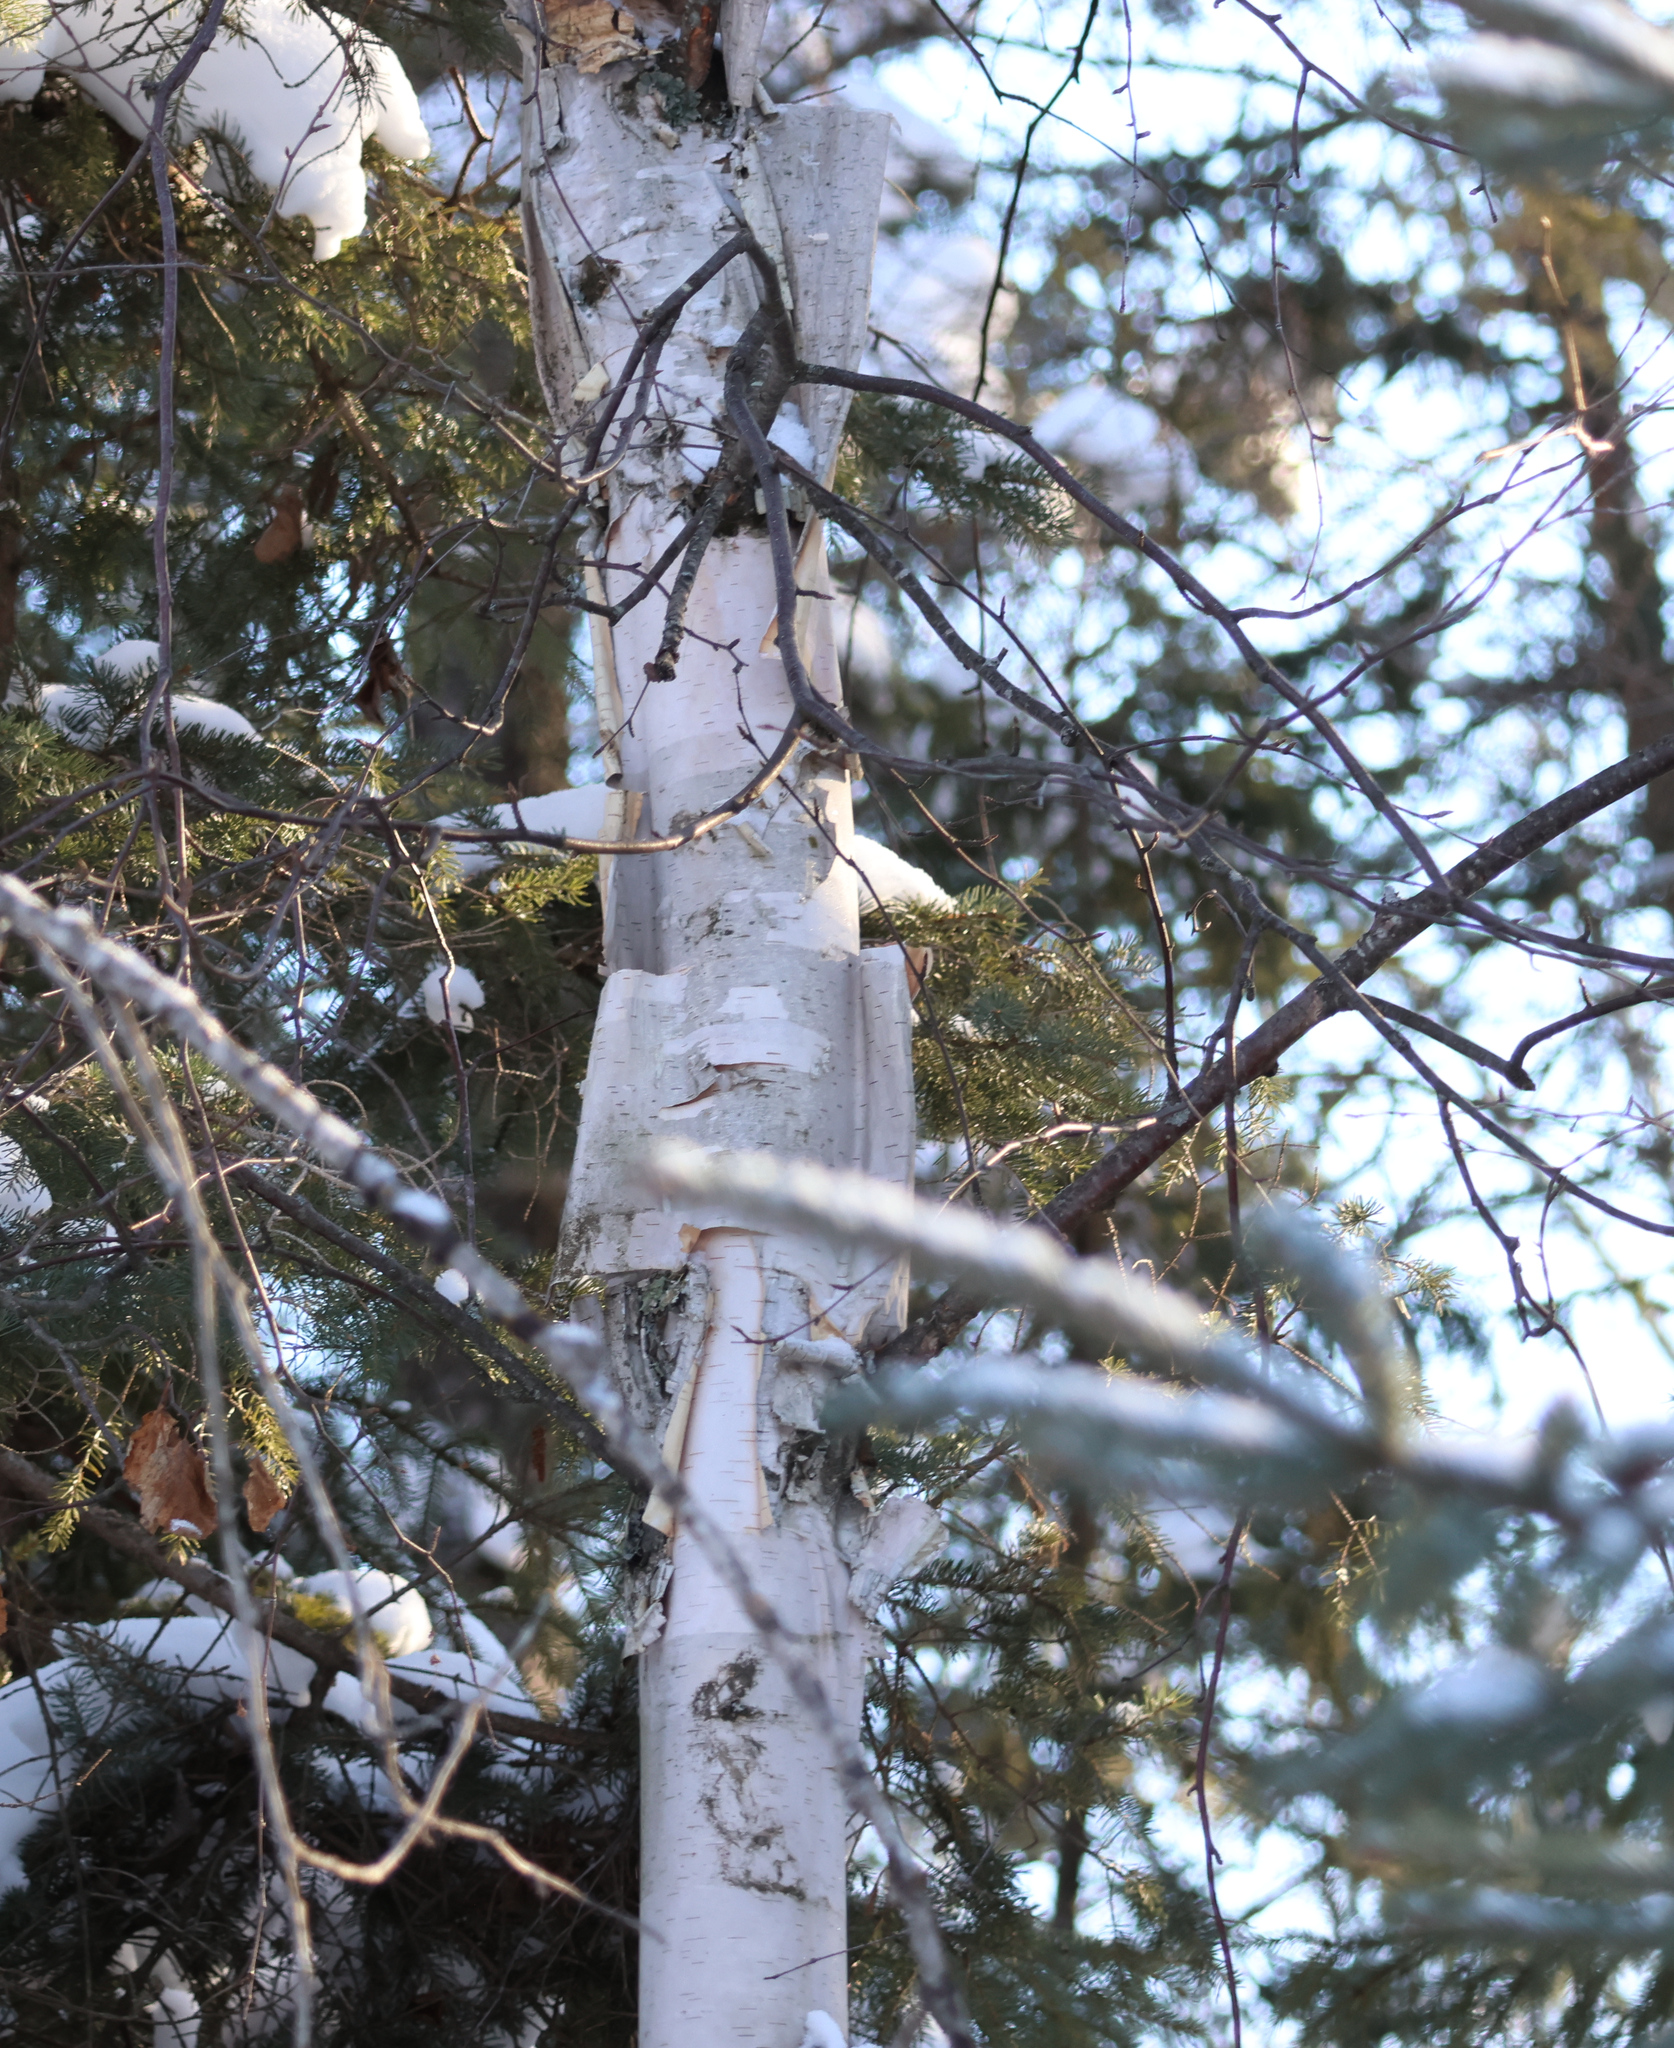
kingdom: Plantae
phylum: Tracheophyta
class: Magnoliopsida
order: Fagales
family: Betulaceae
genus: Betula
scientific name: Betula papyrifera
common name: Paper birch
